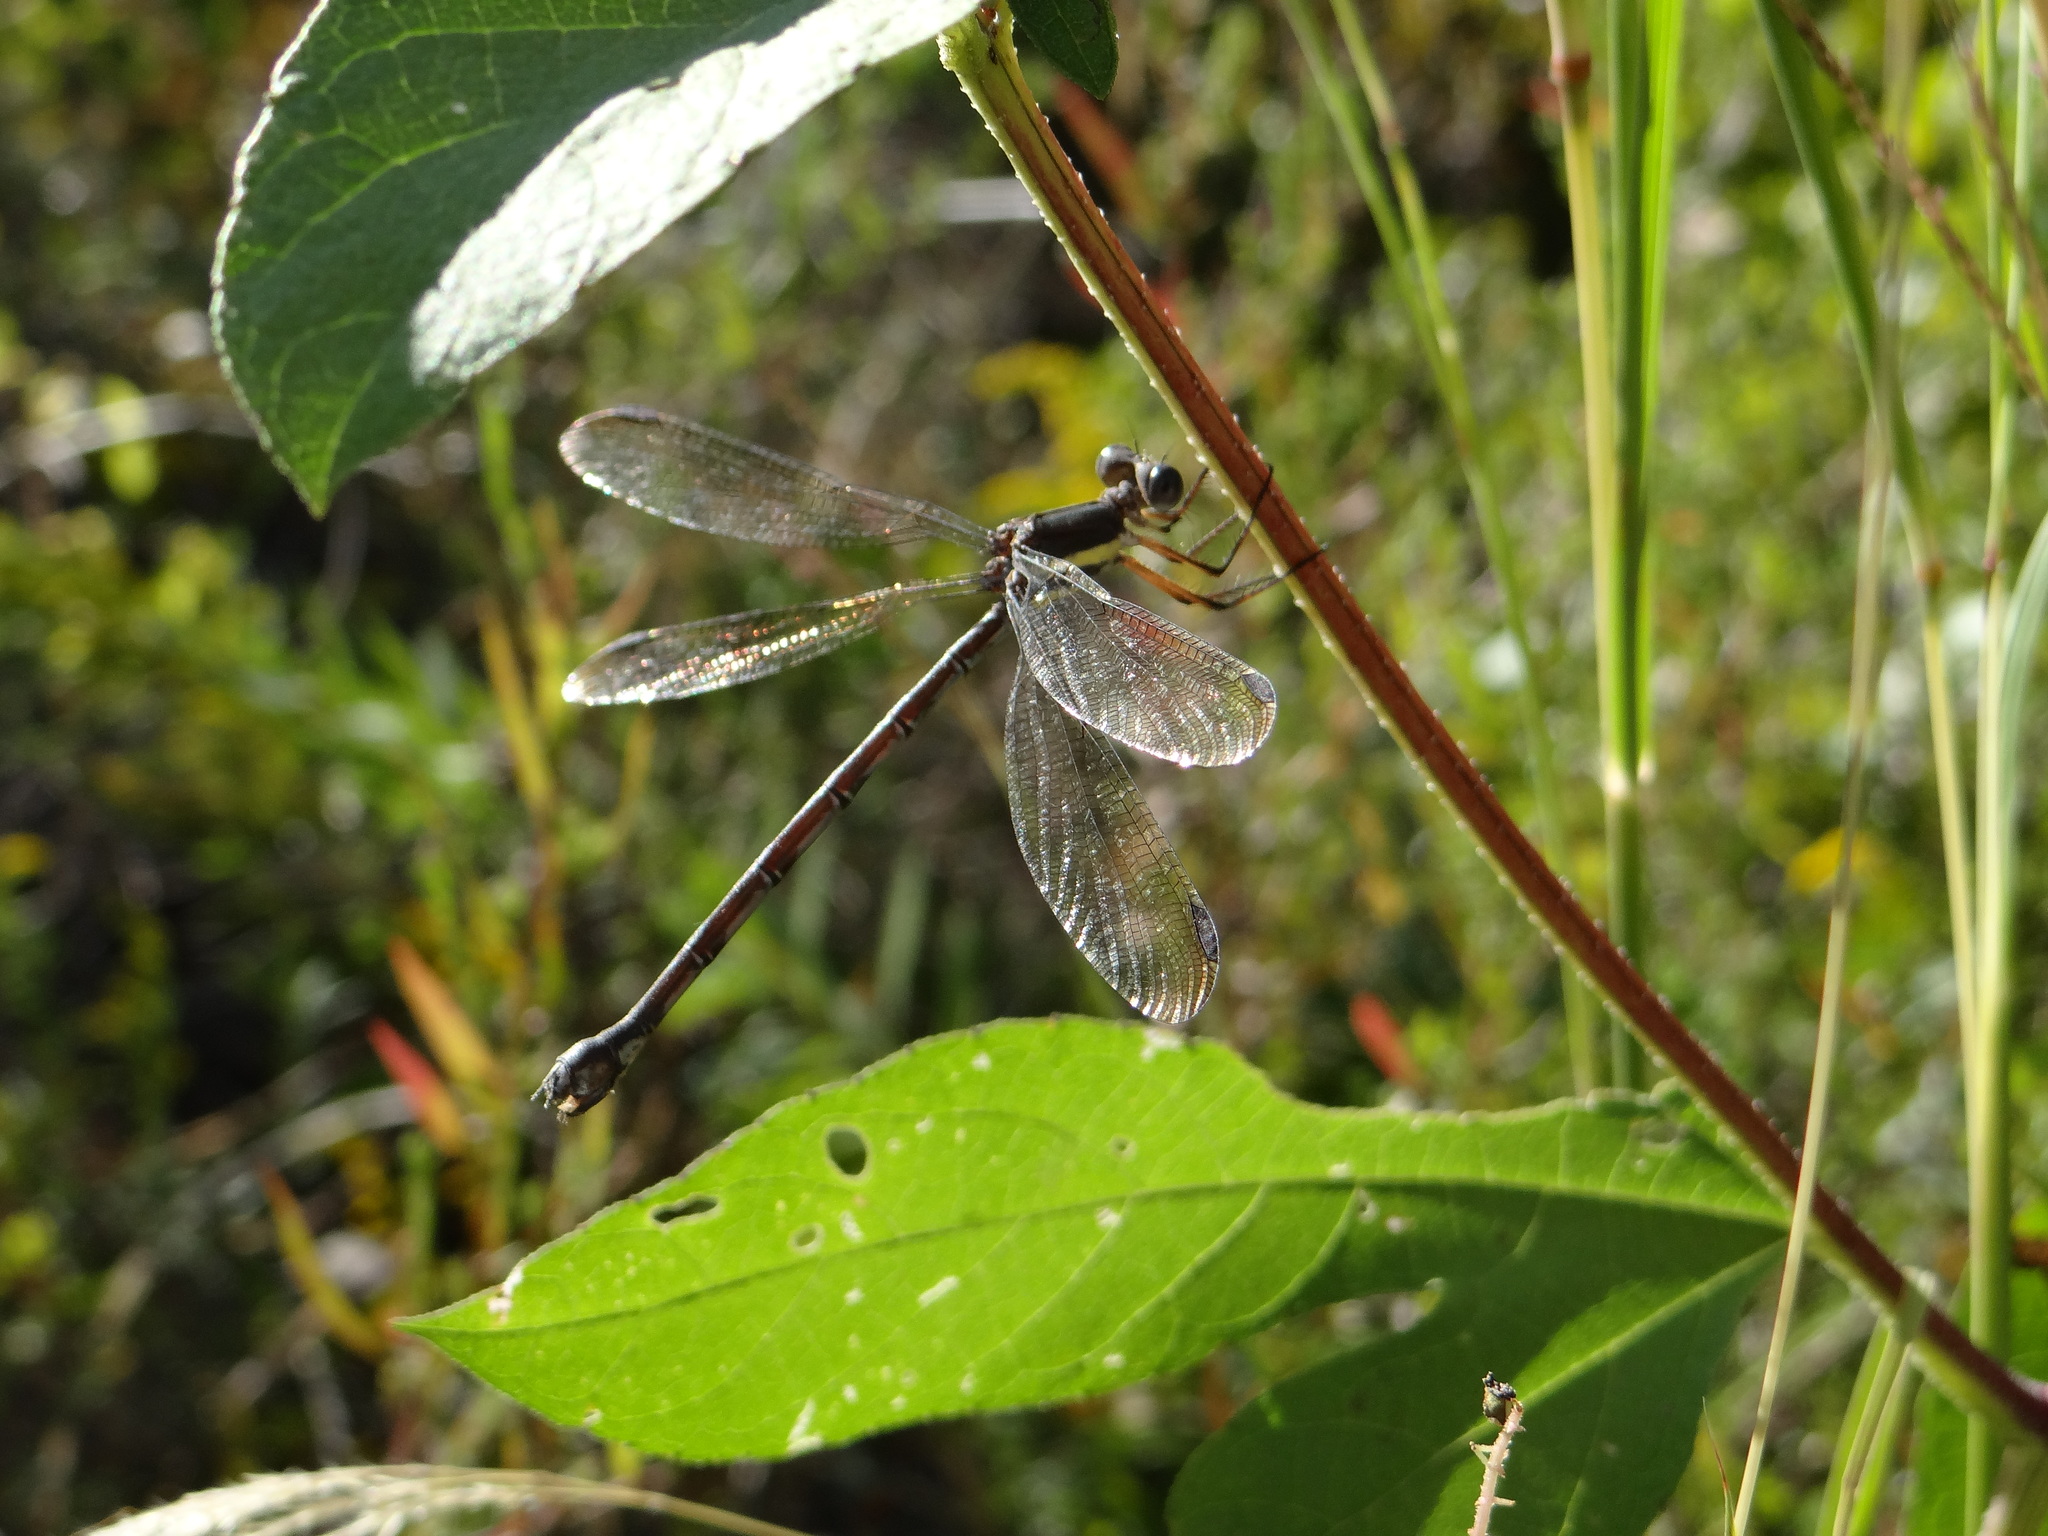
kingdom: Animalia
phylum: Arthropoda
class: Insecta
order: Odonata
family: Lestidae
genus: Archilestes
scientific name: Archilestes grandis
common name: Great spreadwing
